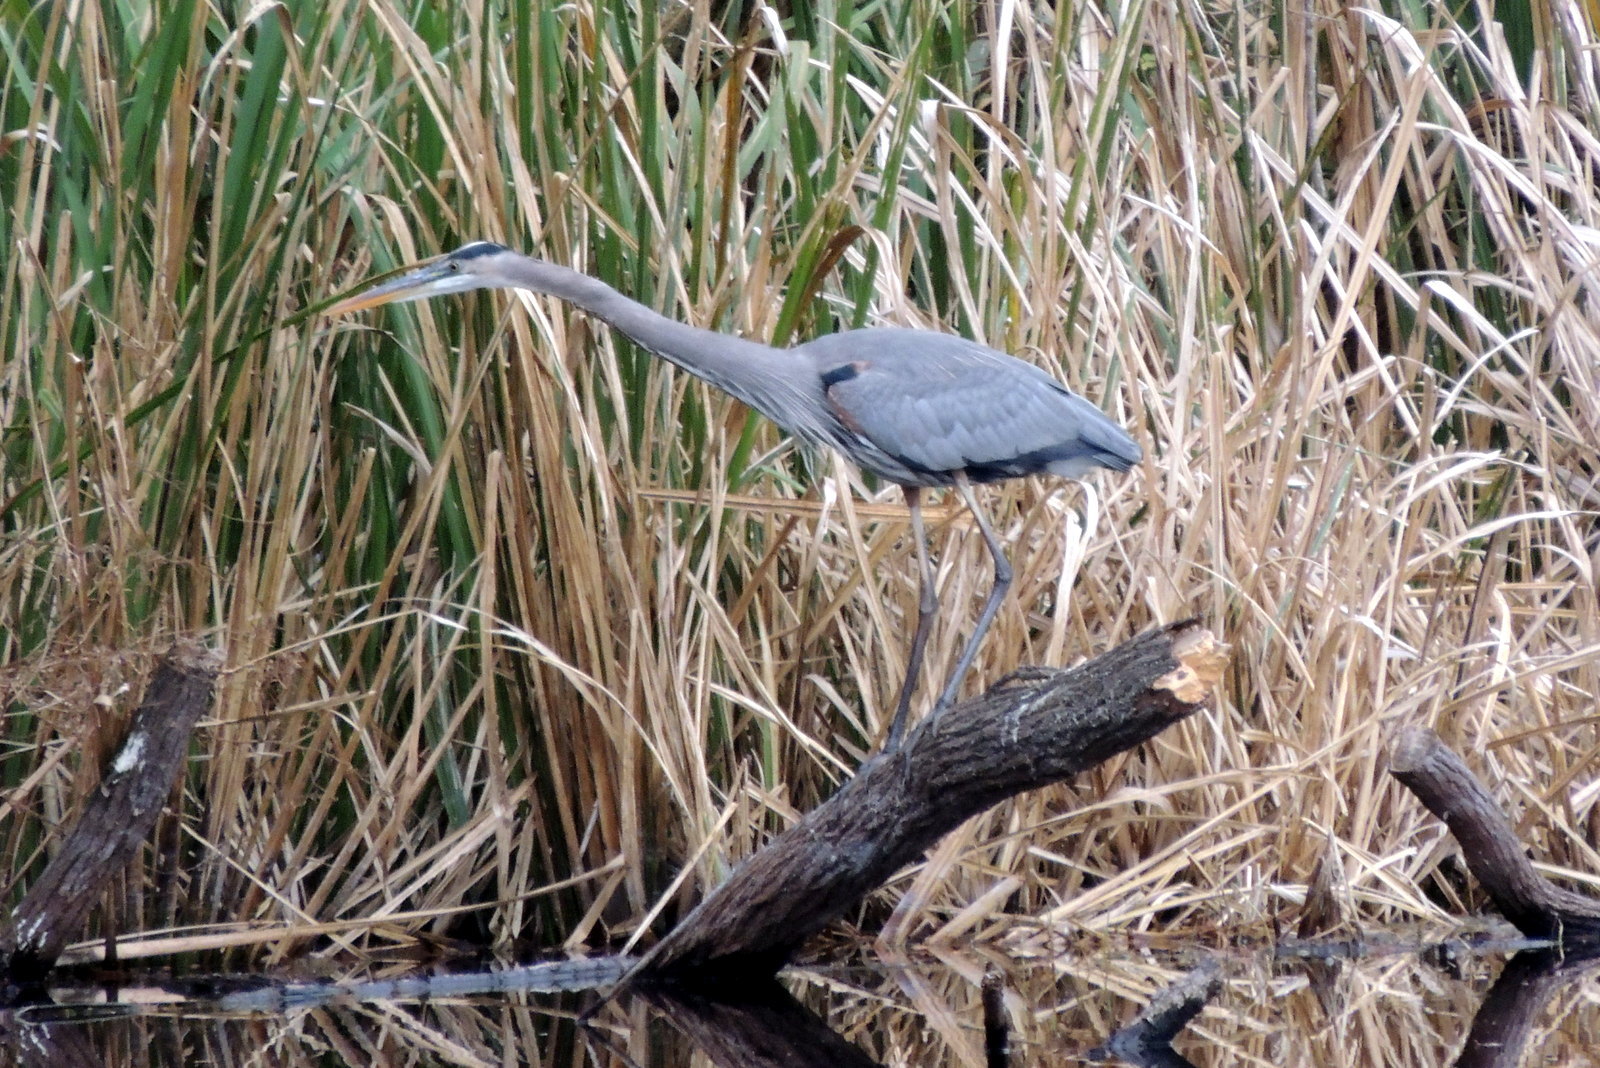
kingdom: Animalia
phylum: Chordata
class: Aves
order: Pelecaniformes
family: Ardeidae
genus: Ardea
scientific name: Ardea herodias
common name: Great blue heron
